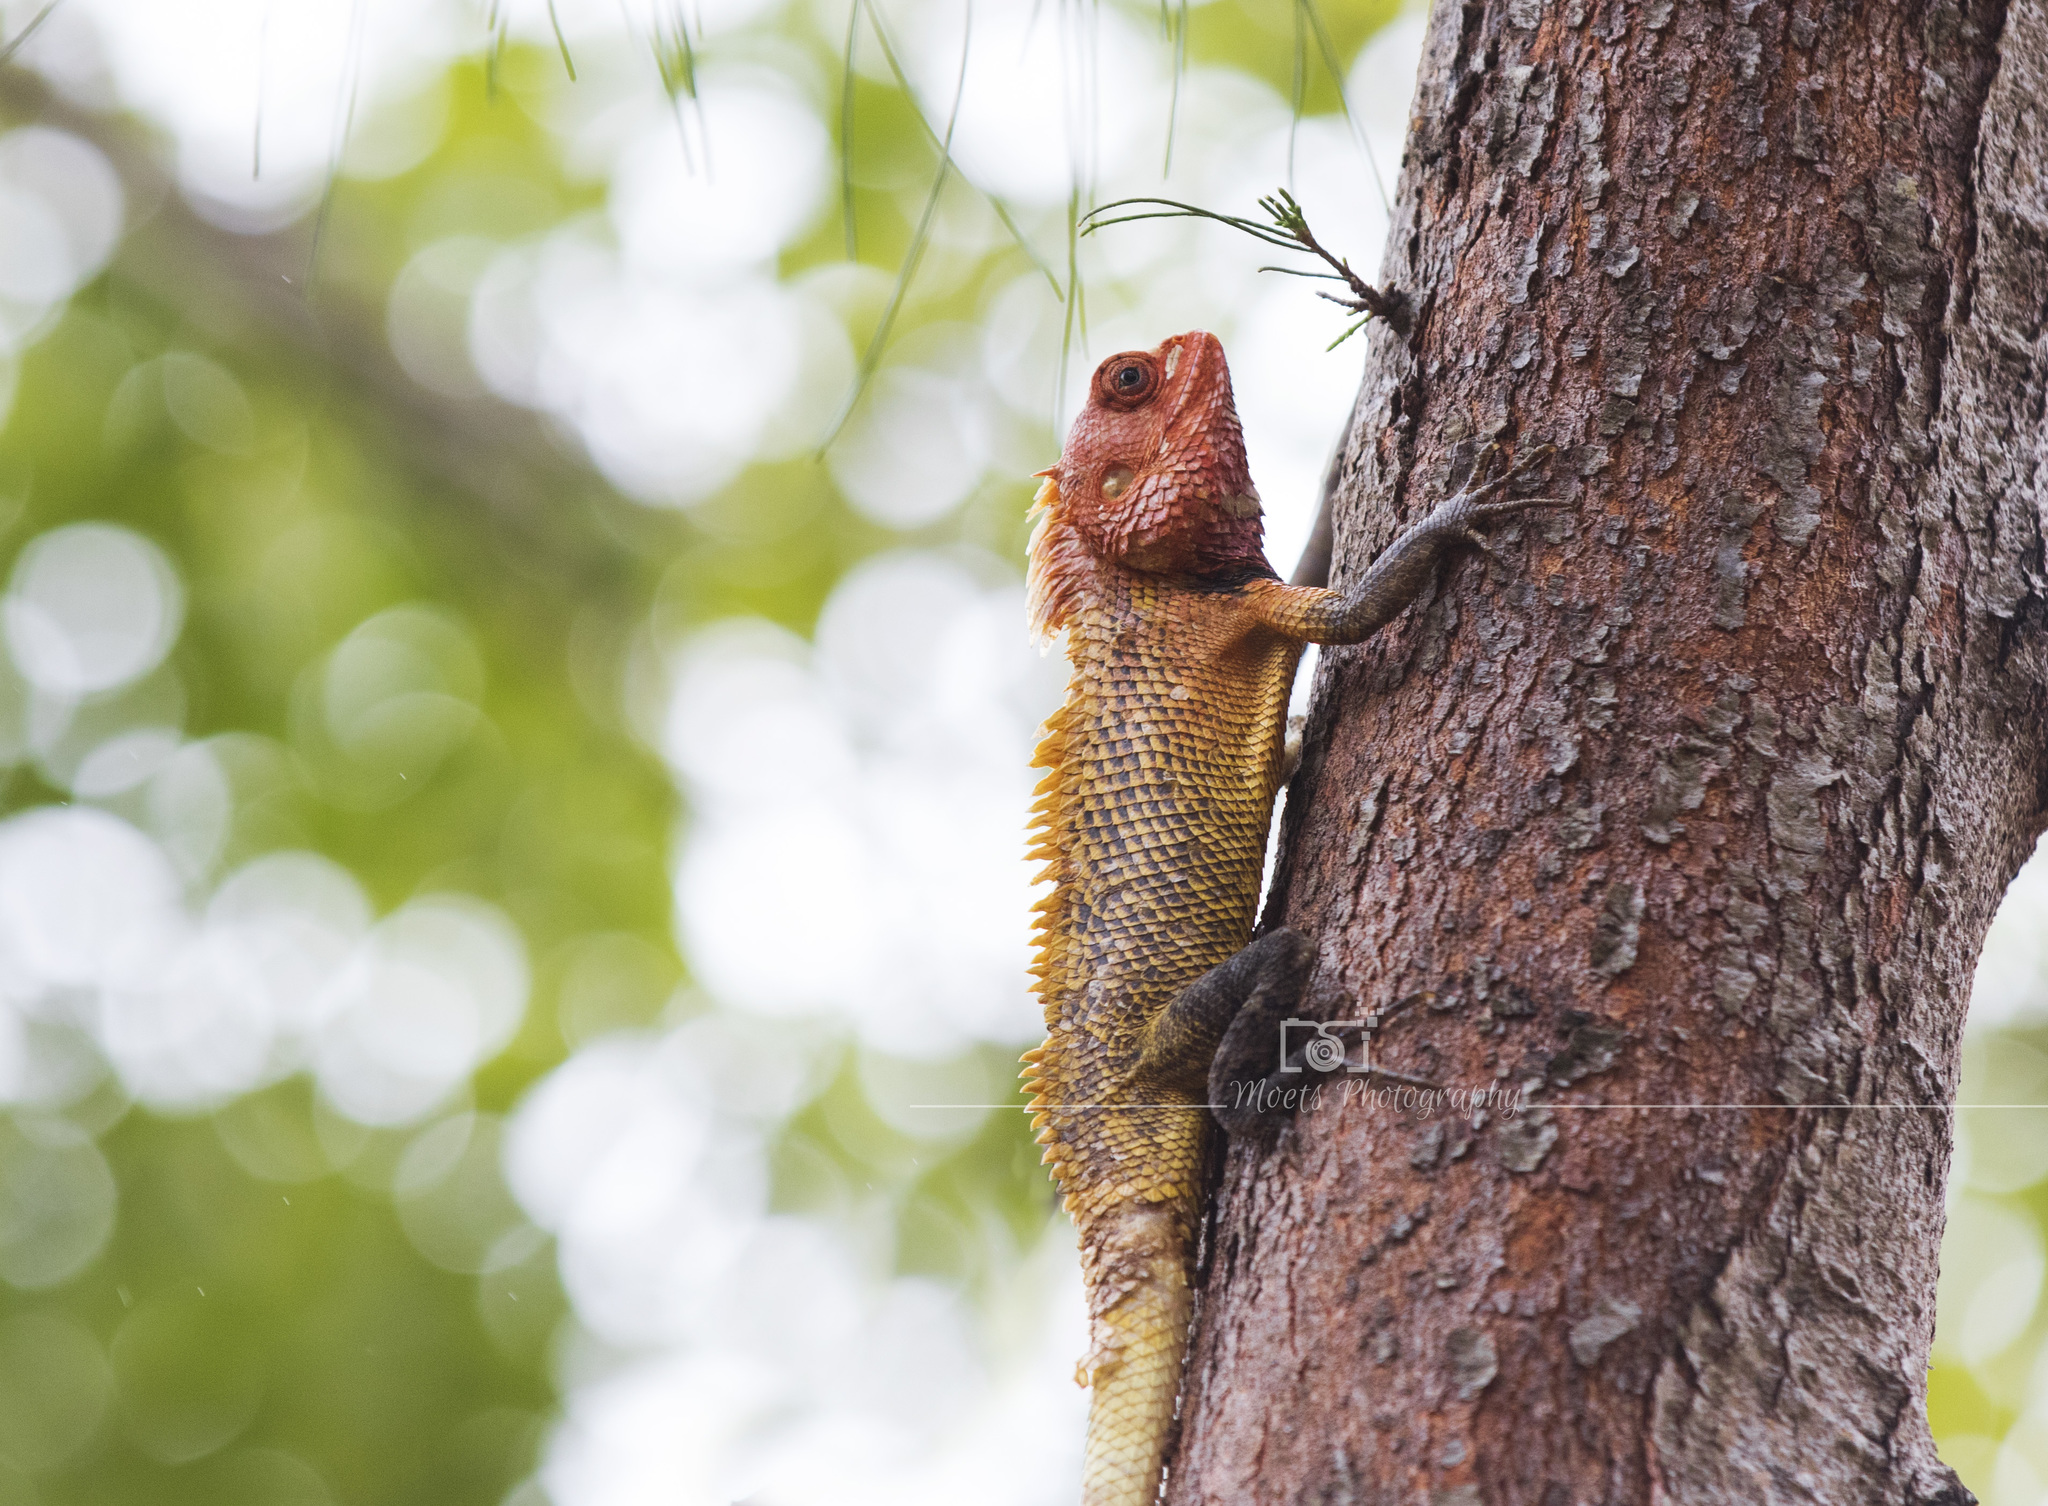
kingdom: Animalia
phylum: Chordata
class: Squamata
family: Agamidae
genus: Calotes
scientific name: Calotes versicolor
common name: Oriental garden lizard
